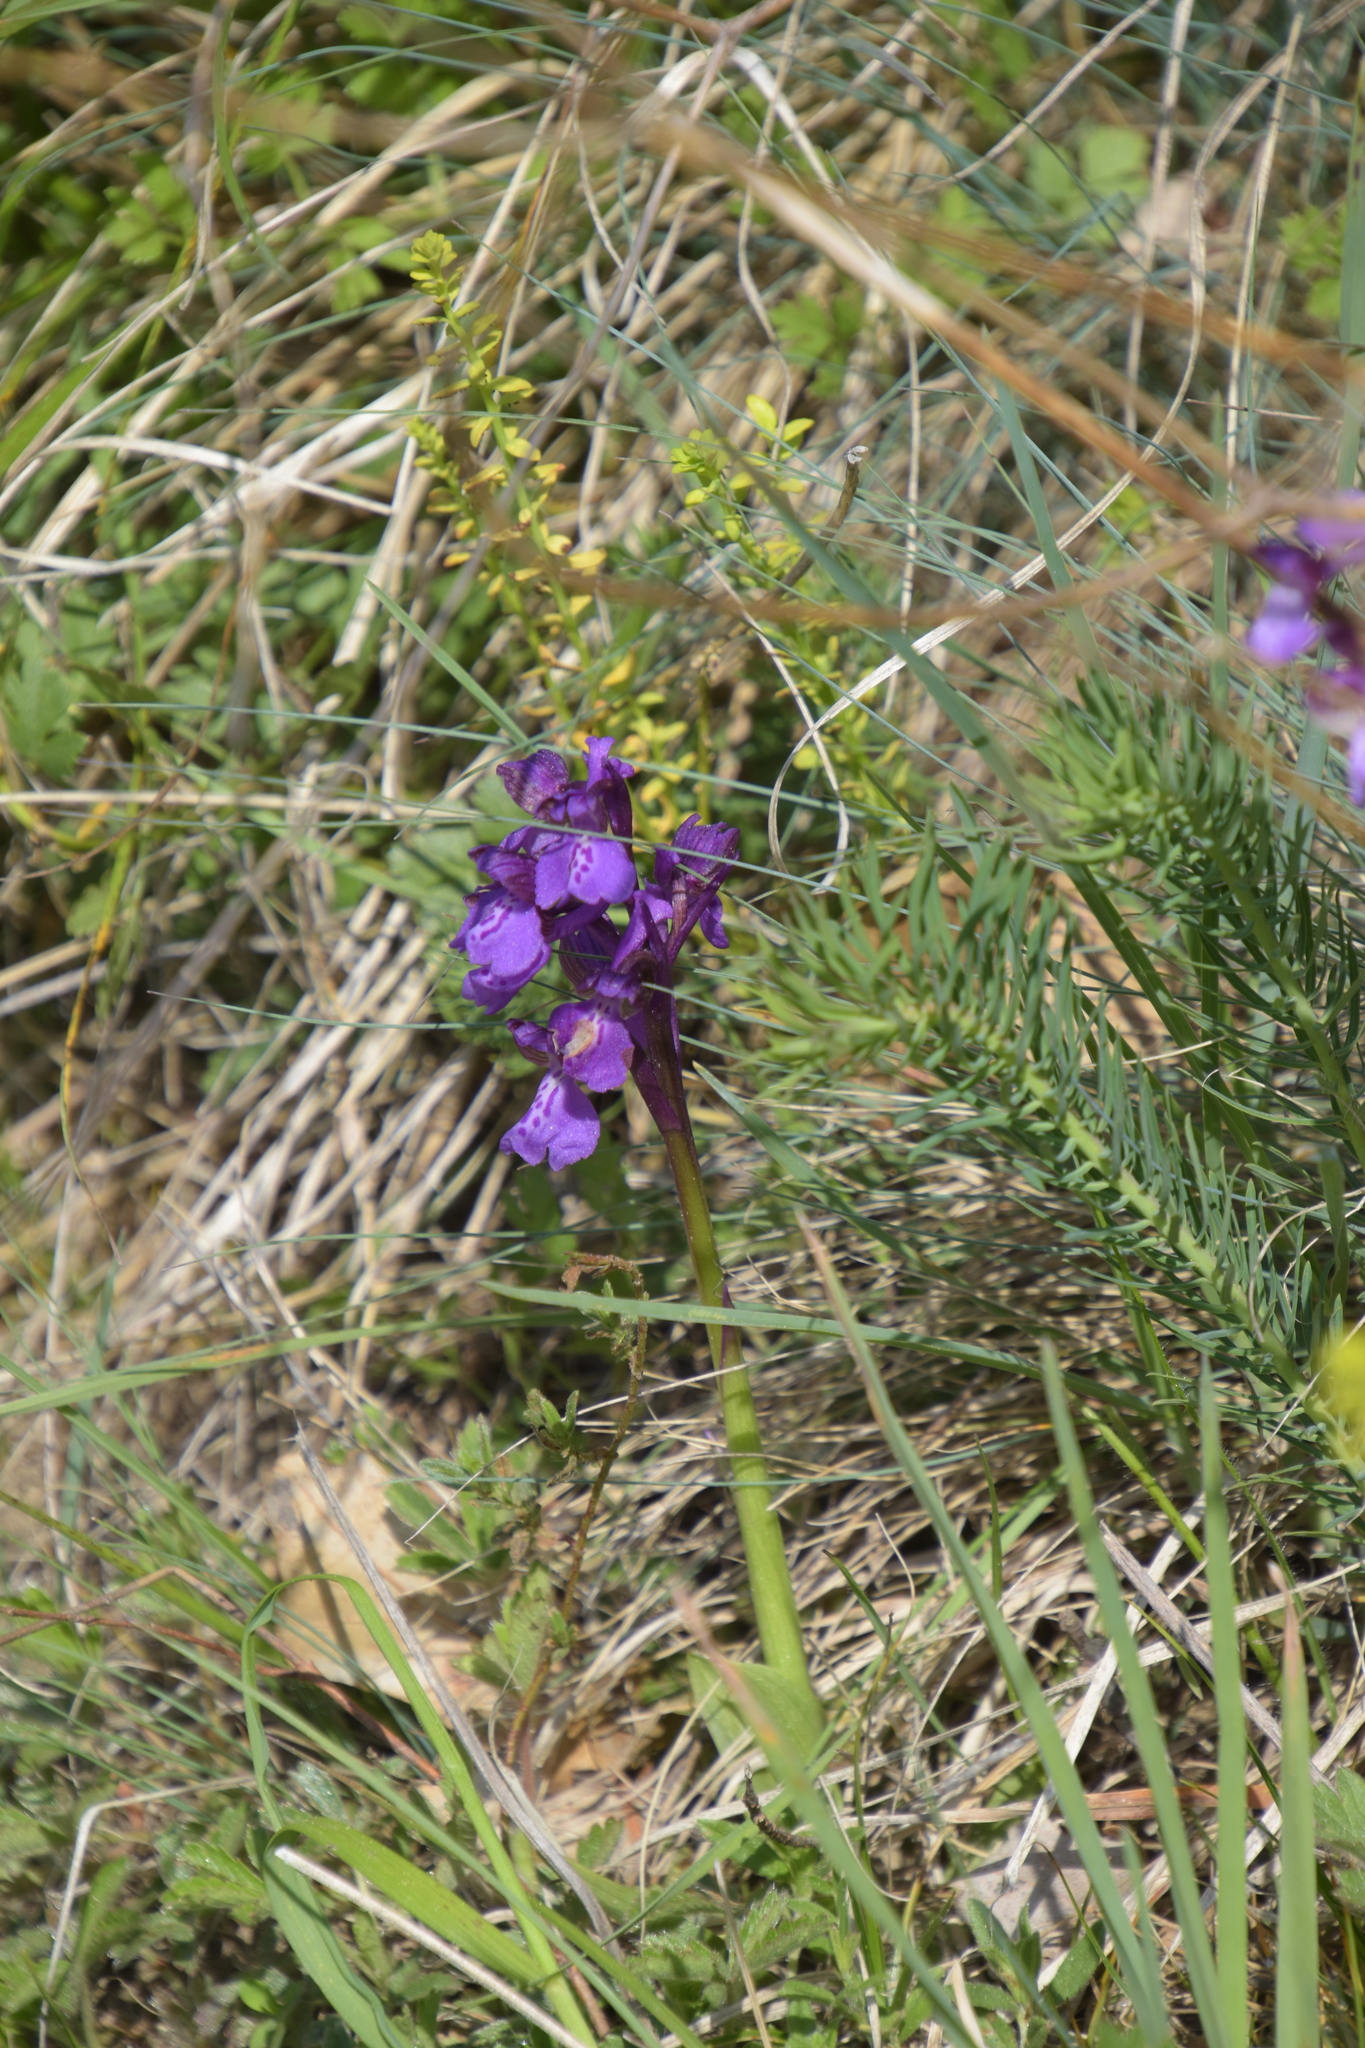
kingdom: Plantae
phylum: Tracheophyta
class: Liliopsida
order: Asparagales
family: Orchidaceae
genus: Anacamptis
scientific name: Anacamptis morio
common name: Green-winged orchid
